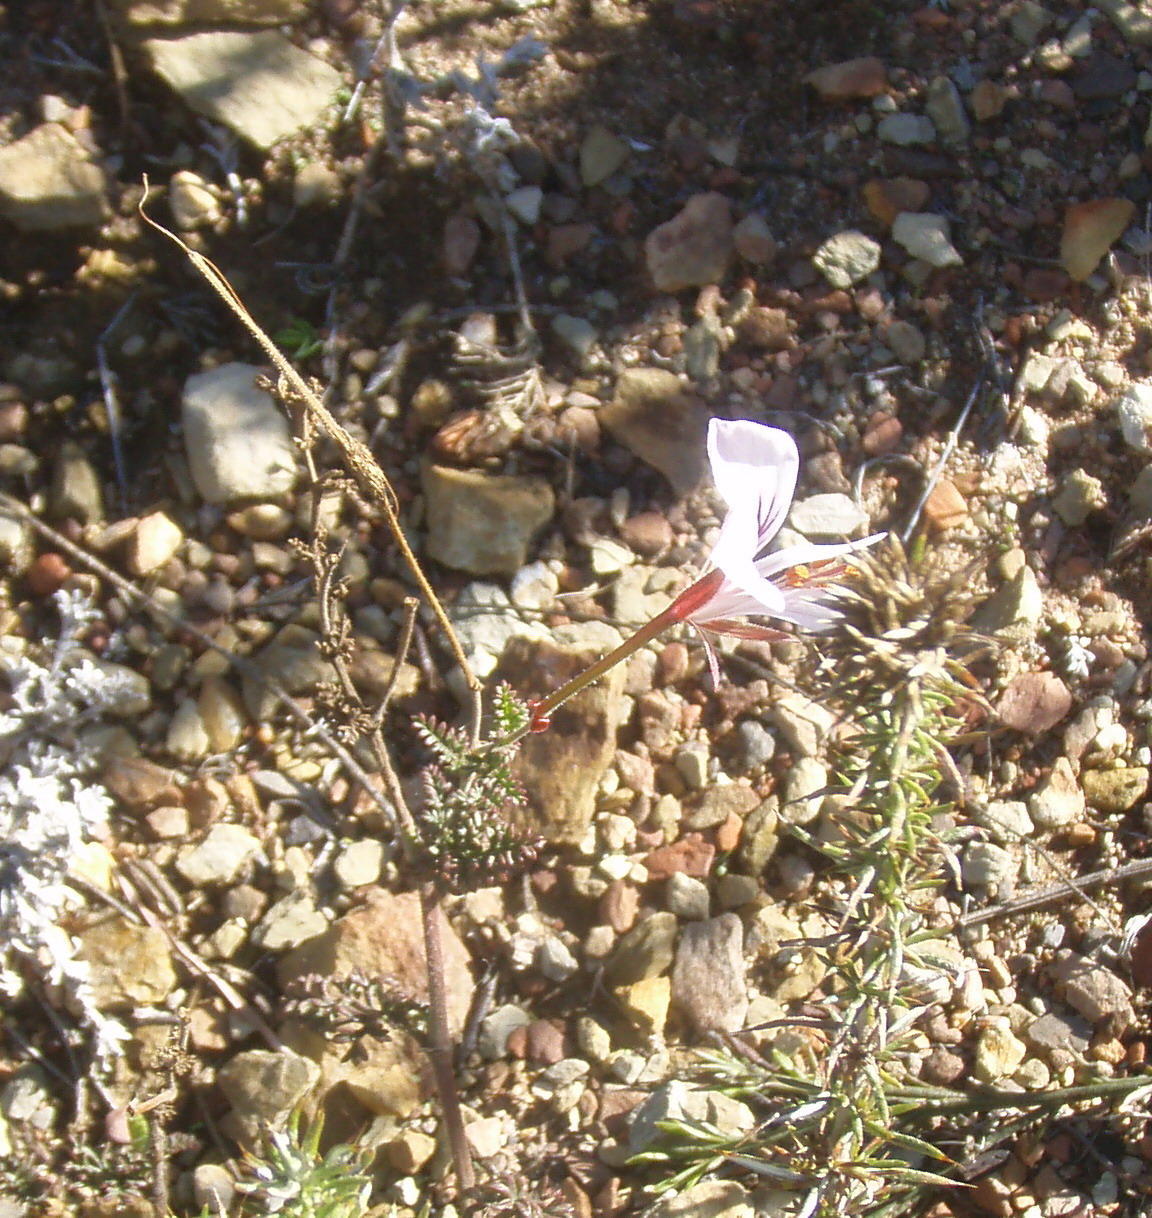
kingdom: Plantae
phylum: Tracheophyta
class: Magnoliopsida
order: Geraniales
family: Geraniaceae
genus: Pelargonium
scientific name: Pelargonium myrrhifolium
